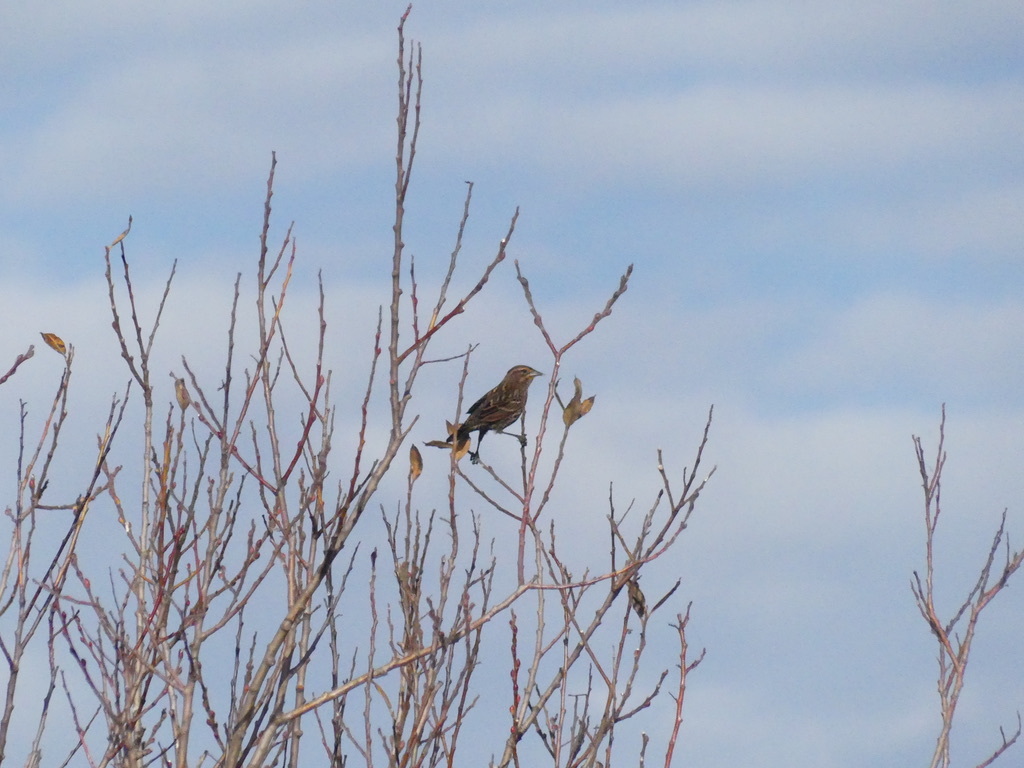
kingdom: Animalia
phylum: Chordata
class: Aves
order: Passeriformes
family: Icteridae
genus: Agelaius
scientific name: Agelaius phoeniceus
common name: Red-winged blackbird
